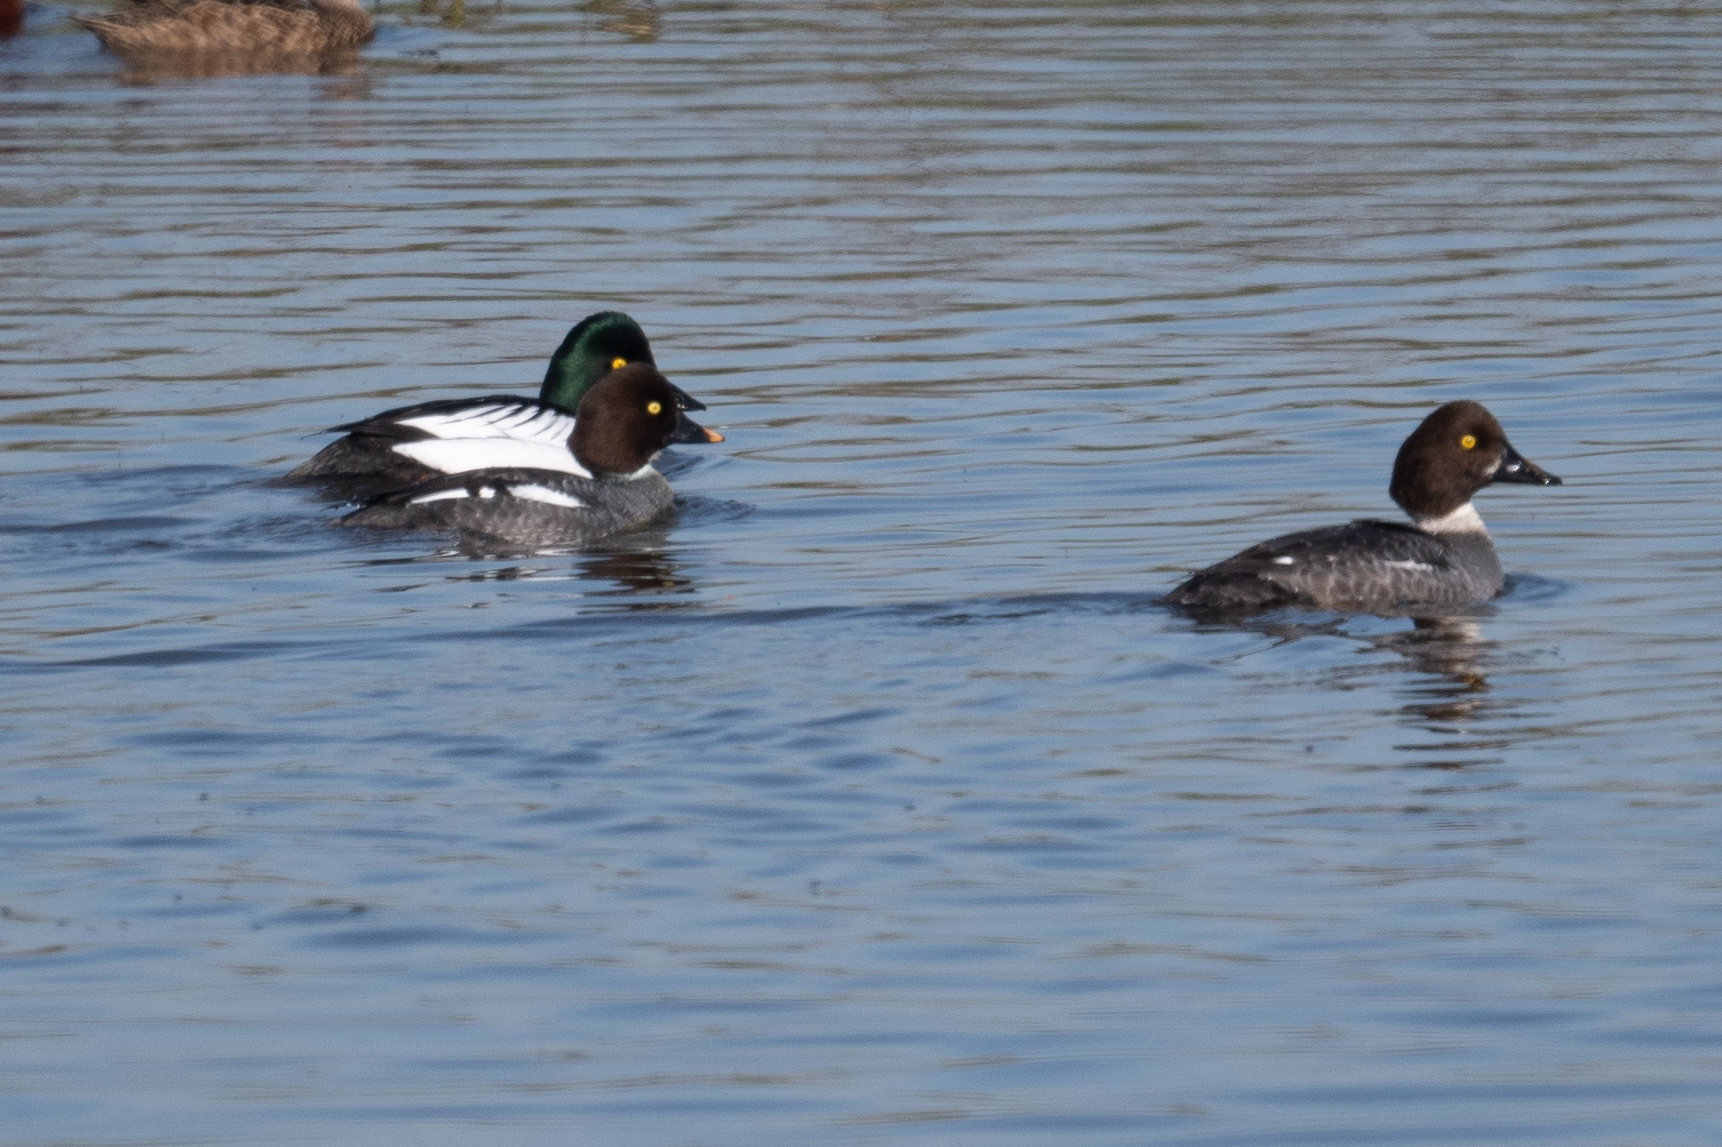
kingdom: Animalia
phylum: Chordata
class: Aves
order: Anseriformes
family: Anatidae
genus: Bucephala
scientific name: Bucephala clangula
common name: Common goldeneye
